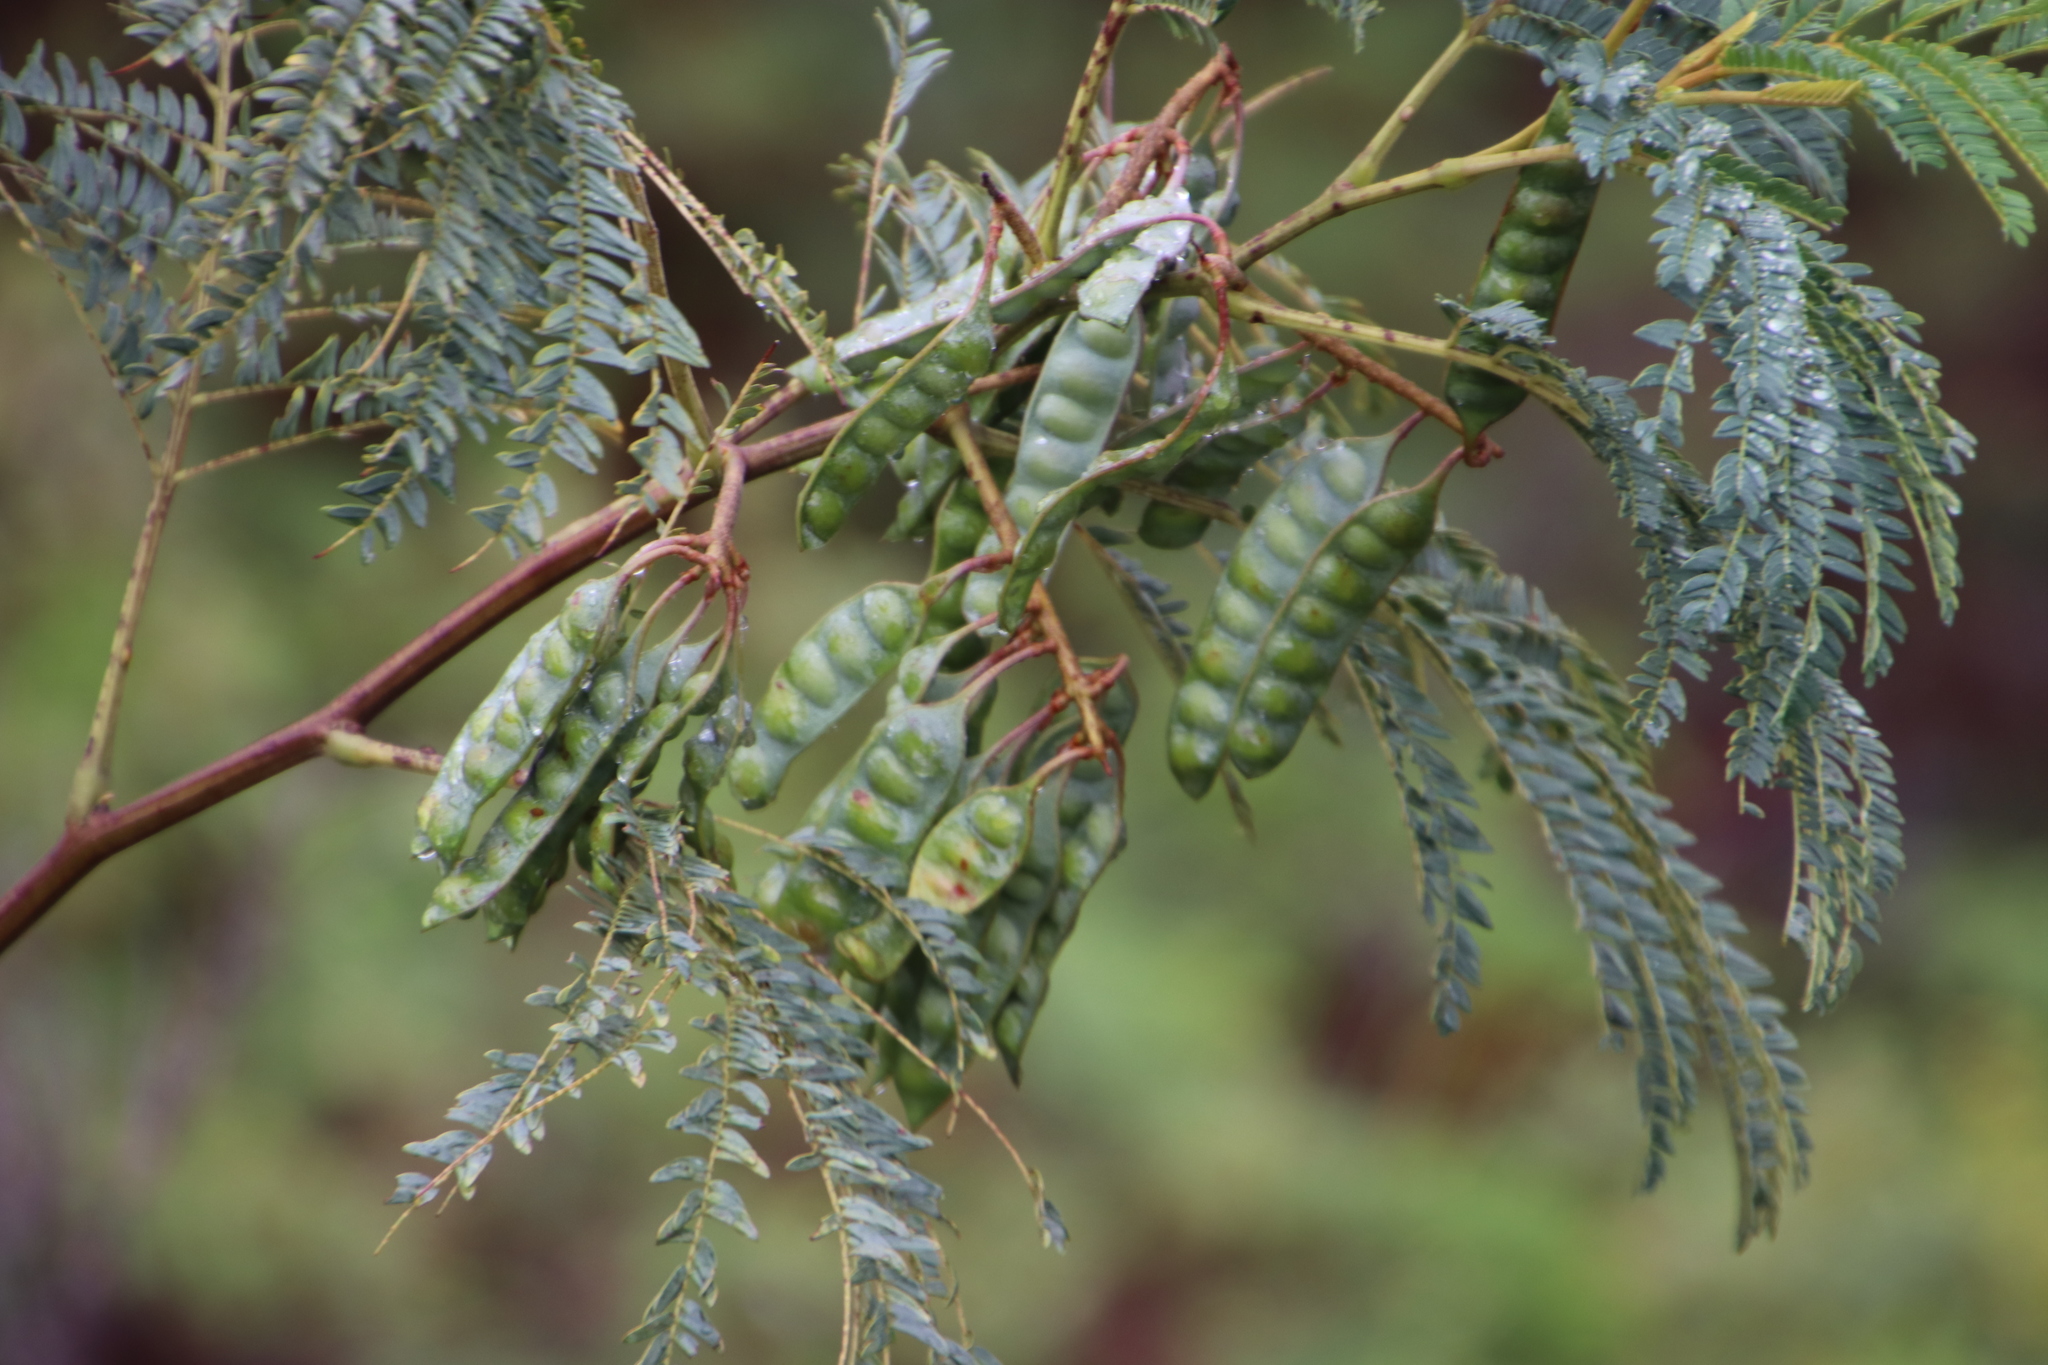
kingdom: Plantae
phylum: Tracheophyta
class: Magnoliopsida
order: Fabales
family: Fabaceae
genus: Paraserianthes
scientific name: Paraserianthes lophantha
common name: Plume albizia
